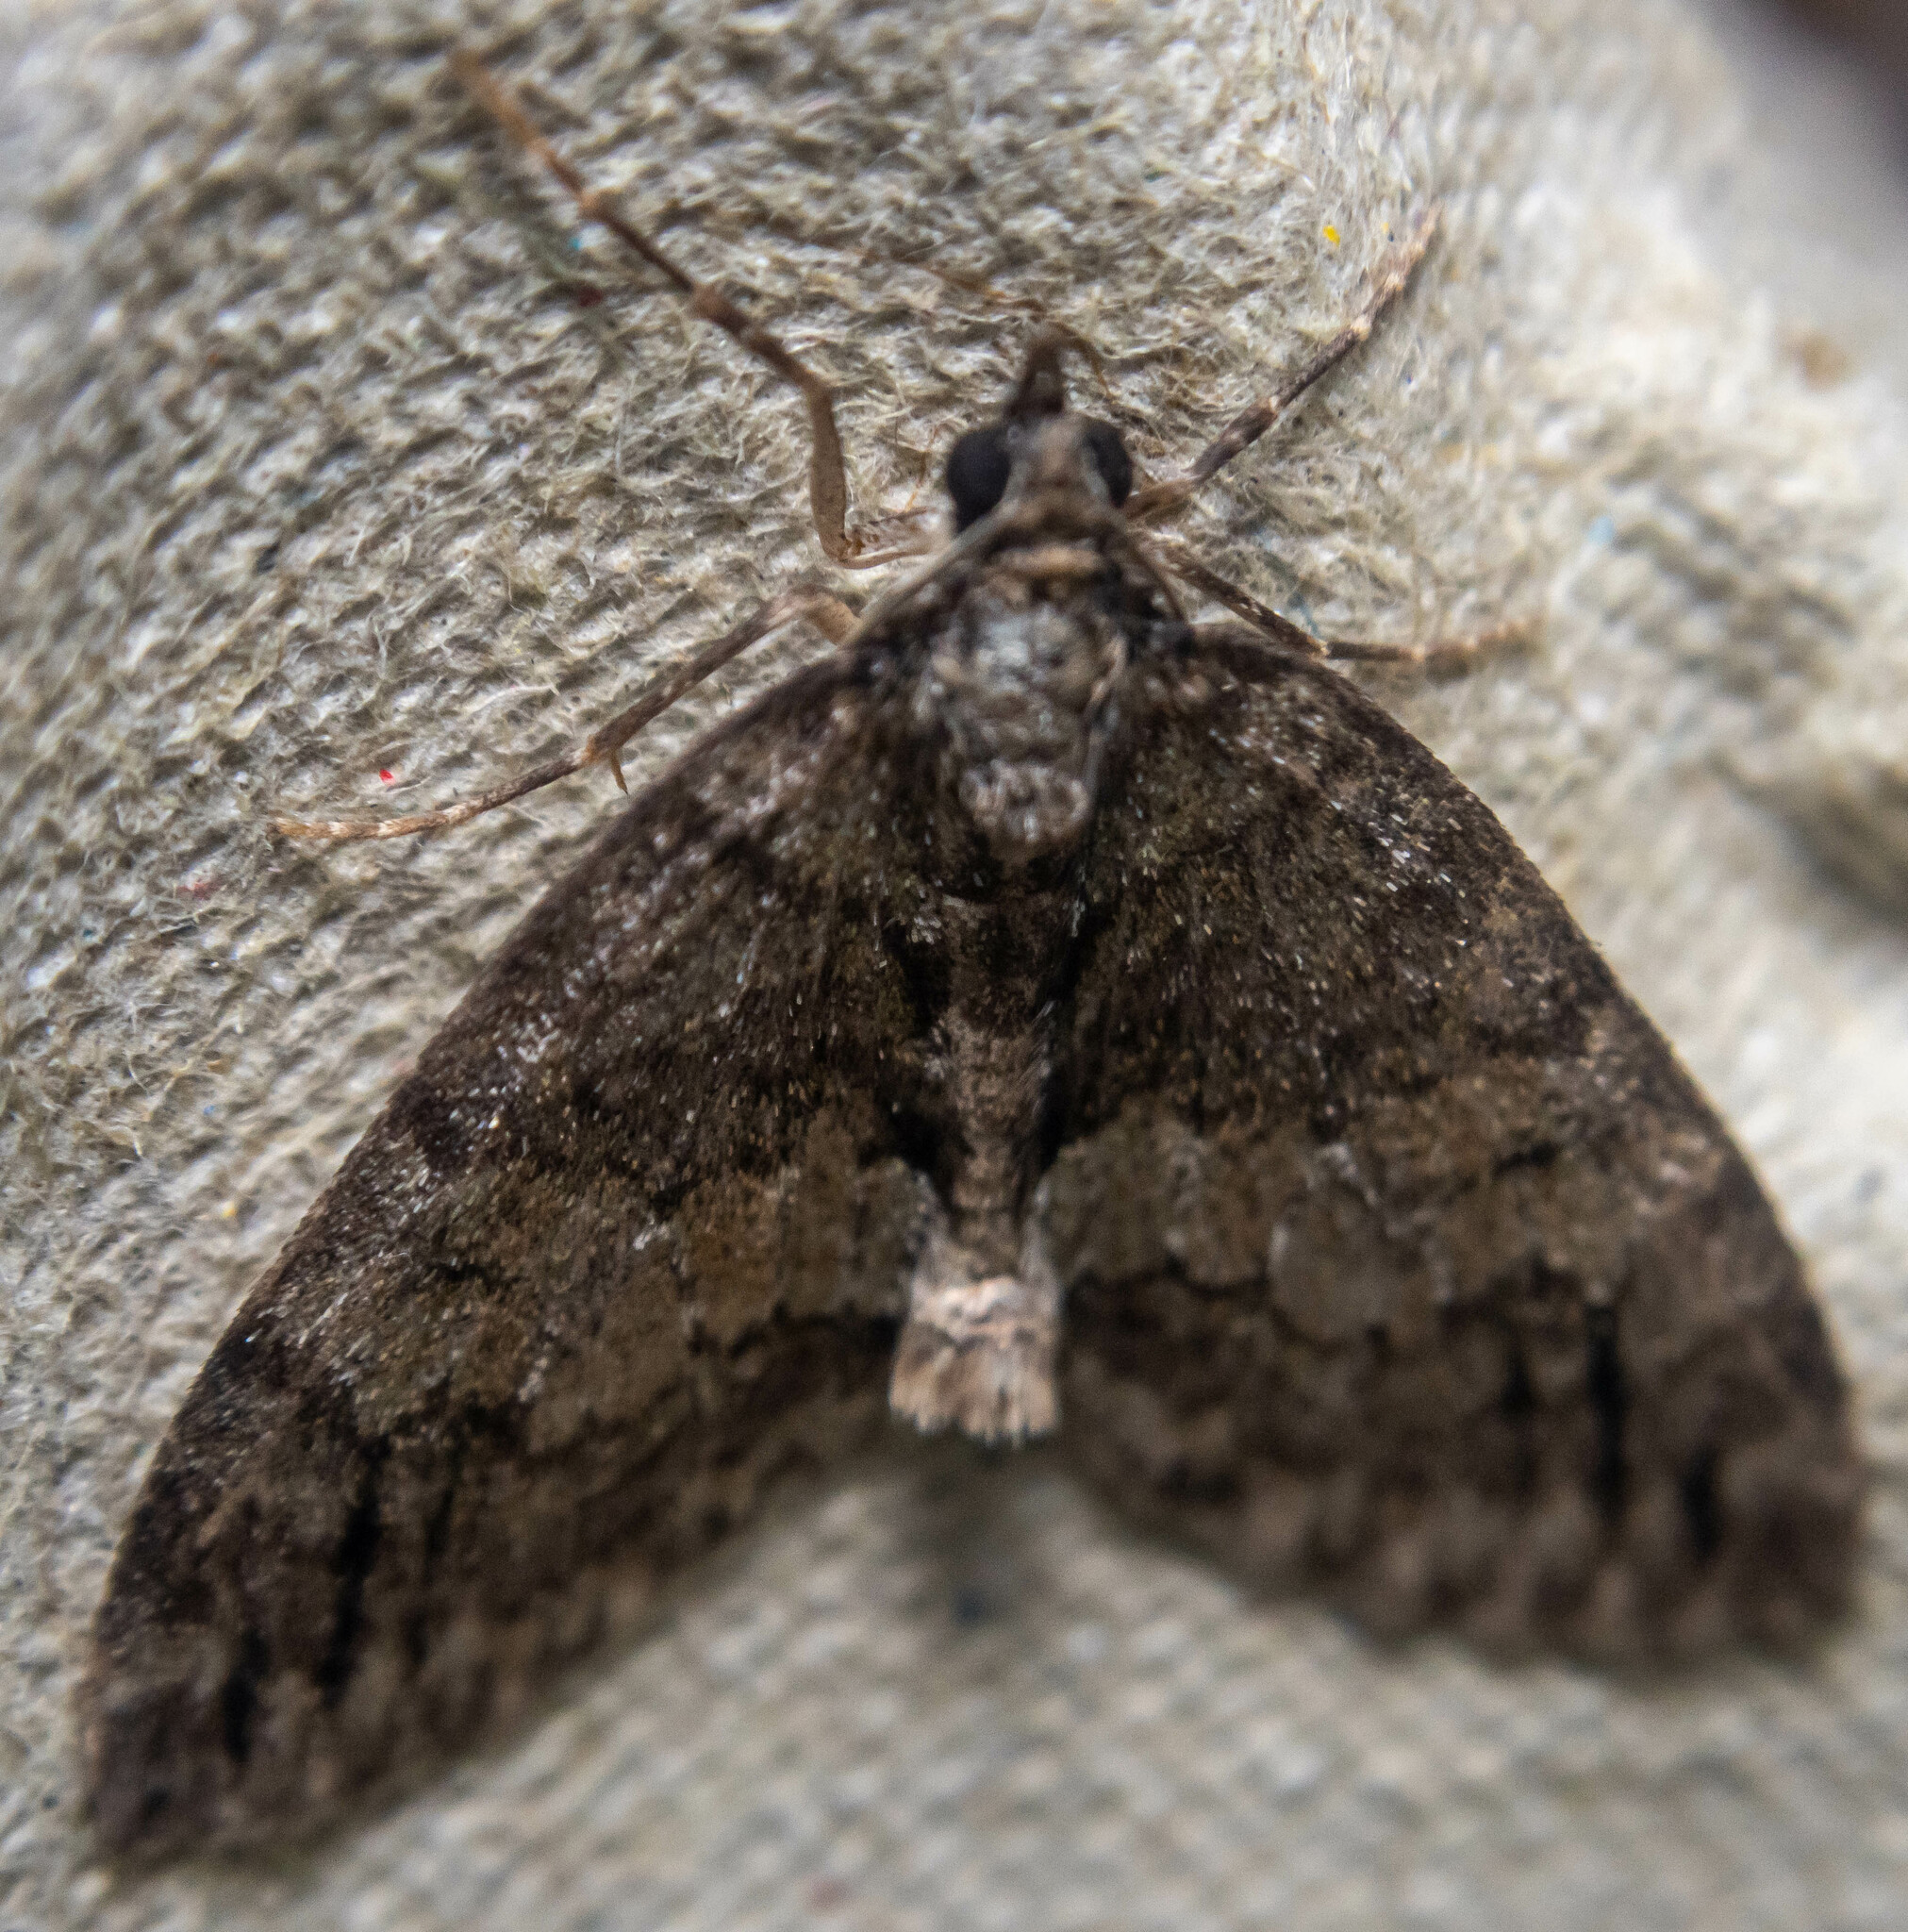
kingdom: Animalia
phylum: Arthropoda
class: Insecta
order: Lepidoptera
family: Geometridae
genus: Hydriomena
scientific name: Hydriomena impluviata
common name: May highflyer
